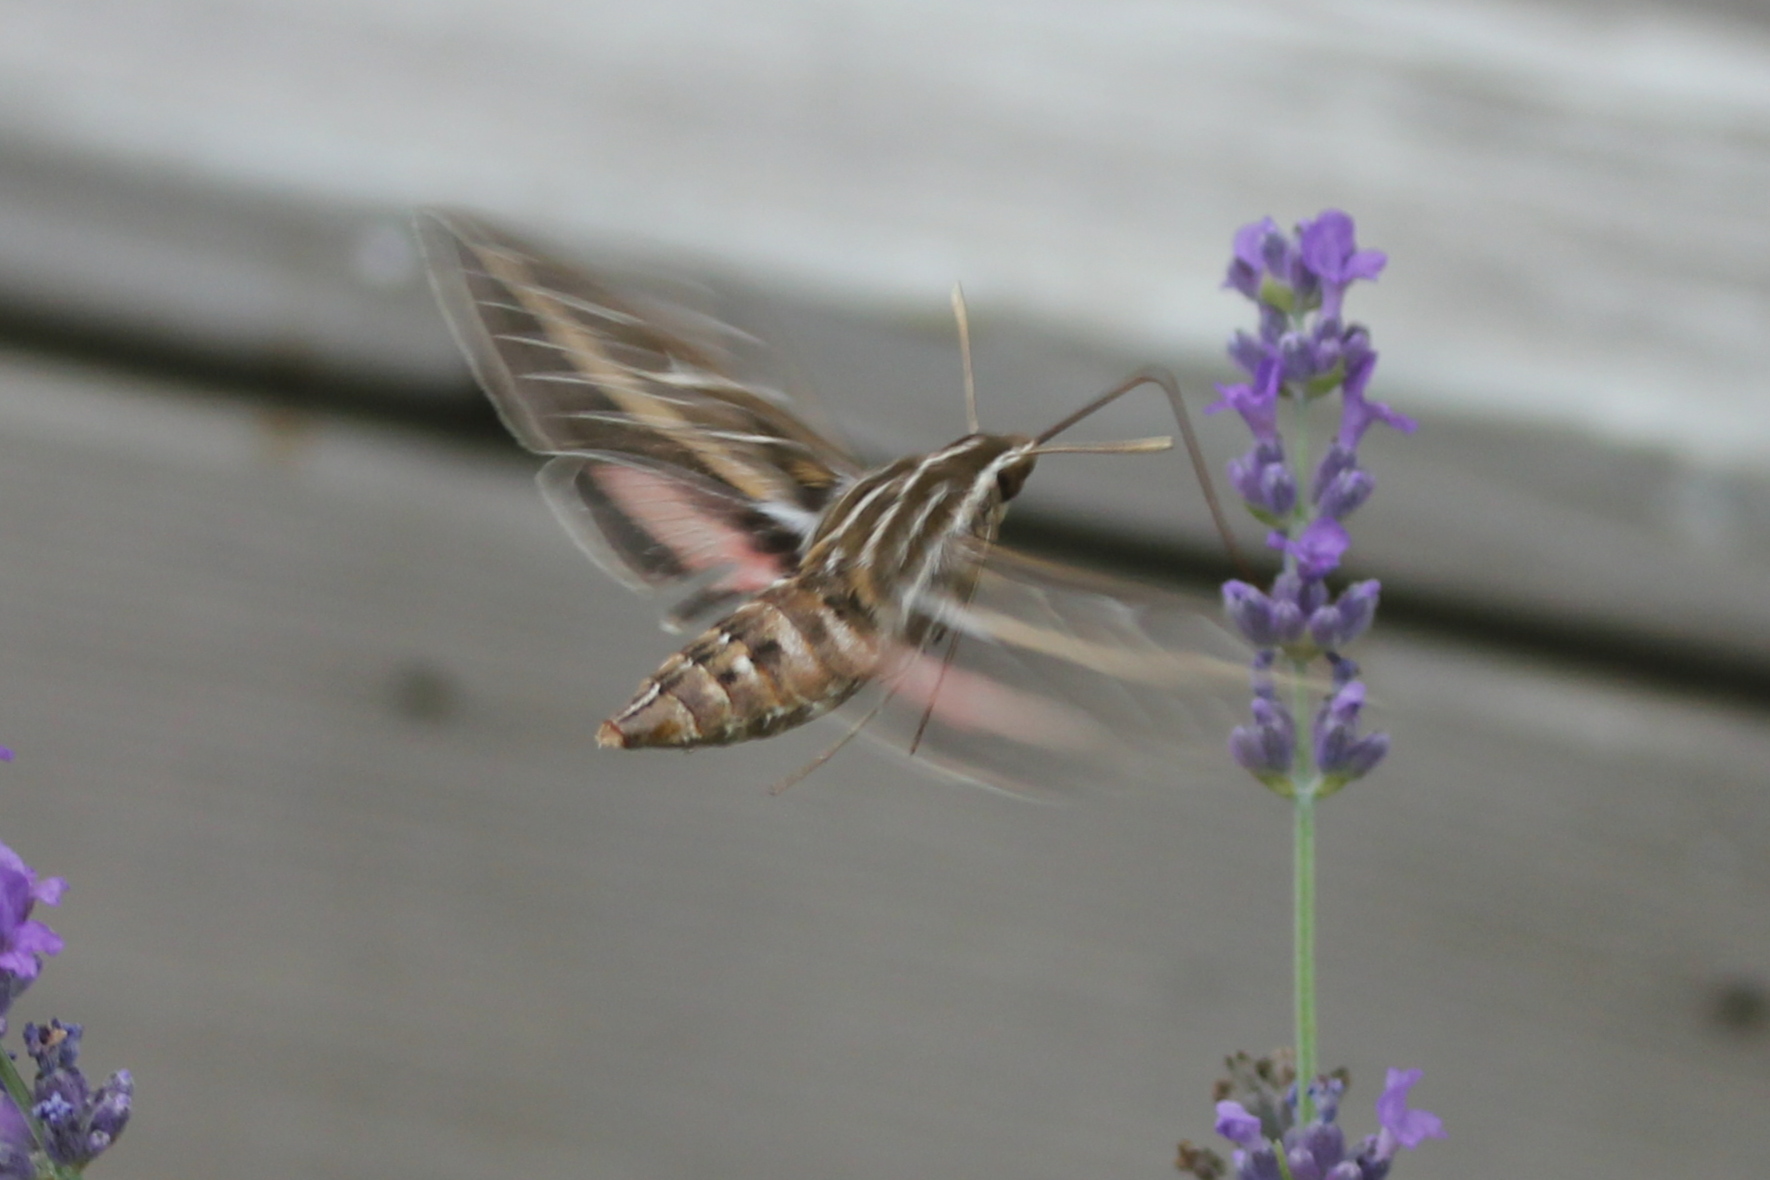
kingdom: Animalia
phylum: Arthropoda
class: Insecta
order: Lepidoptera
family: Sphingidae
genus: Hyles
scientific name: Hyles lineata
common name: White-lined sphinx
